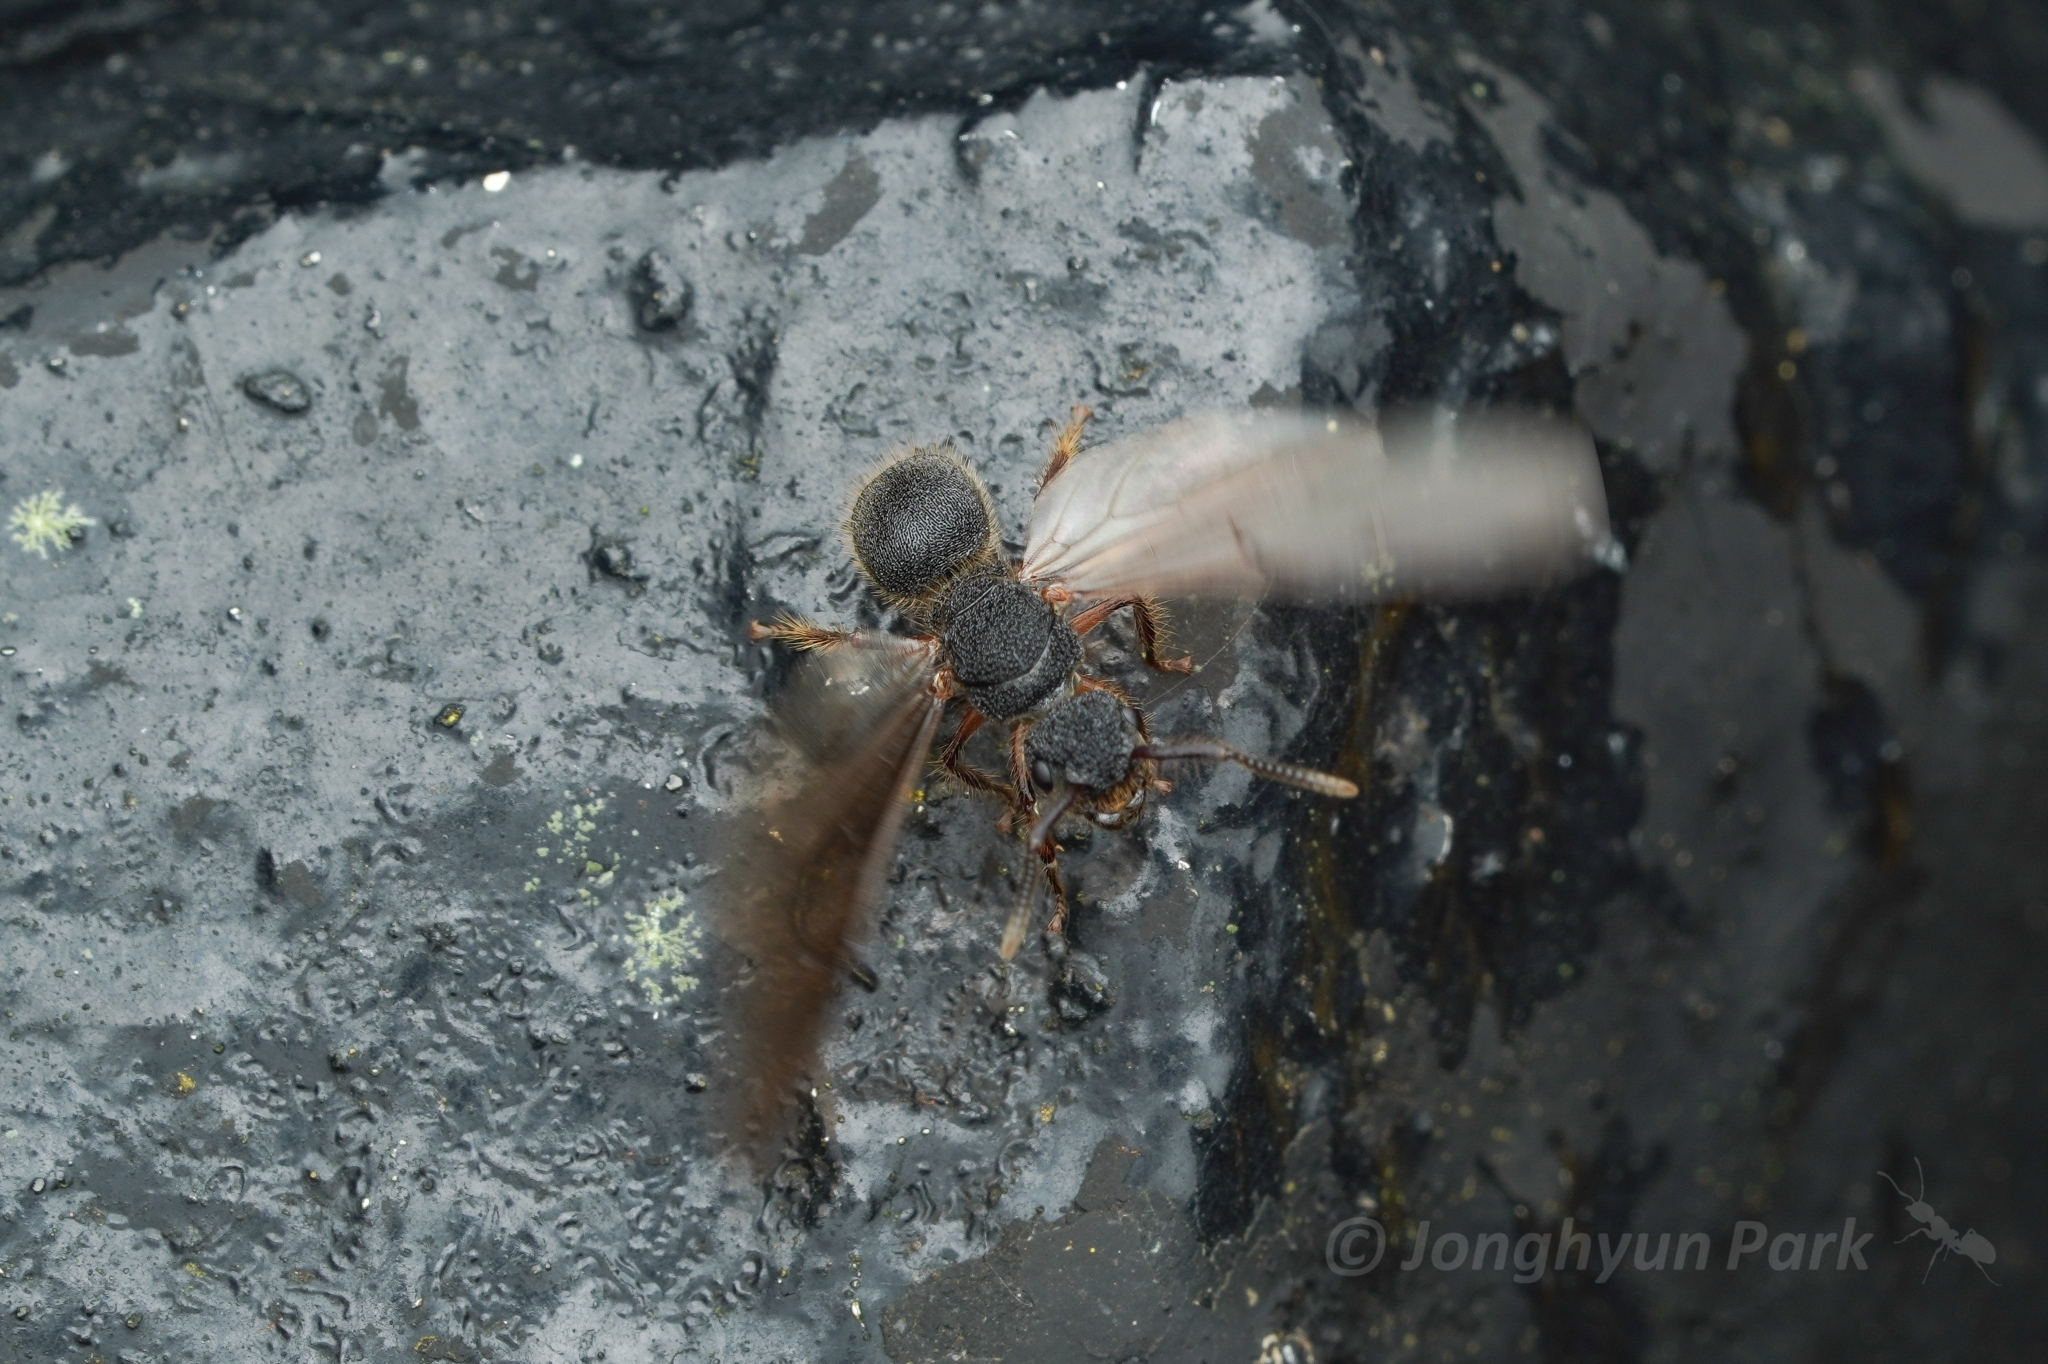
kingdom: Animalia
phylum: Arthropoda
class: Insecta
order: Hymenoptera
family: Formicidae
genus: Echinopla
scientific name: Echinopla tritschleri
